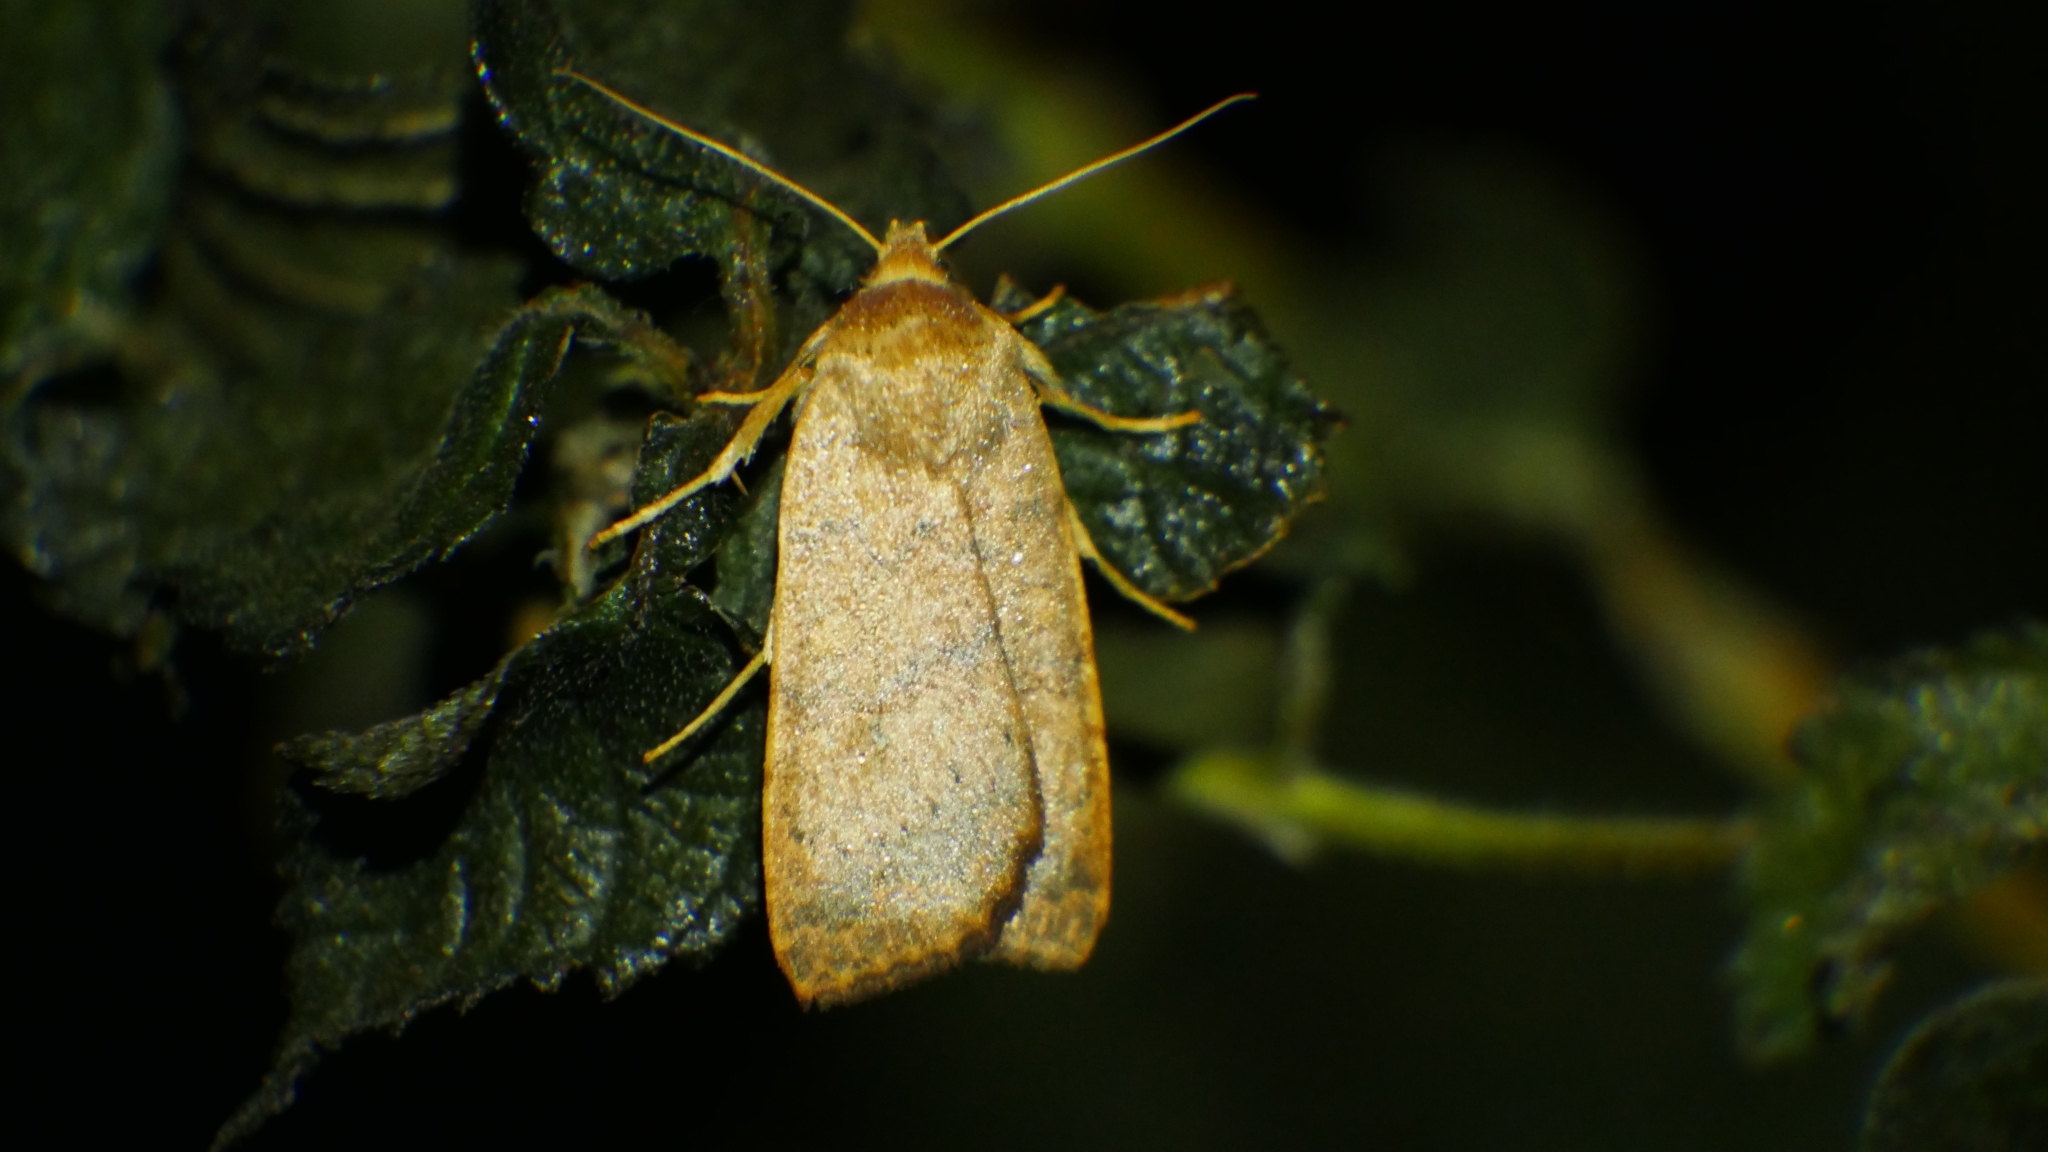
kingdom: Animalia
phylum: Arthropoda
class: Insecta
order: Lepidoptera
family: Noctuidae
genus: Agrochola
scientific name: Agrochola bicolorago
